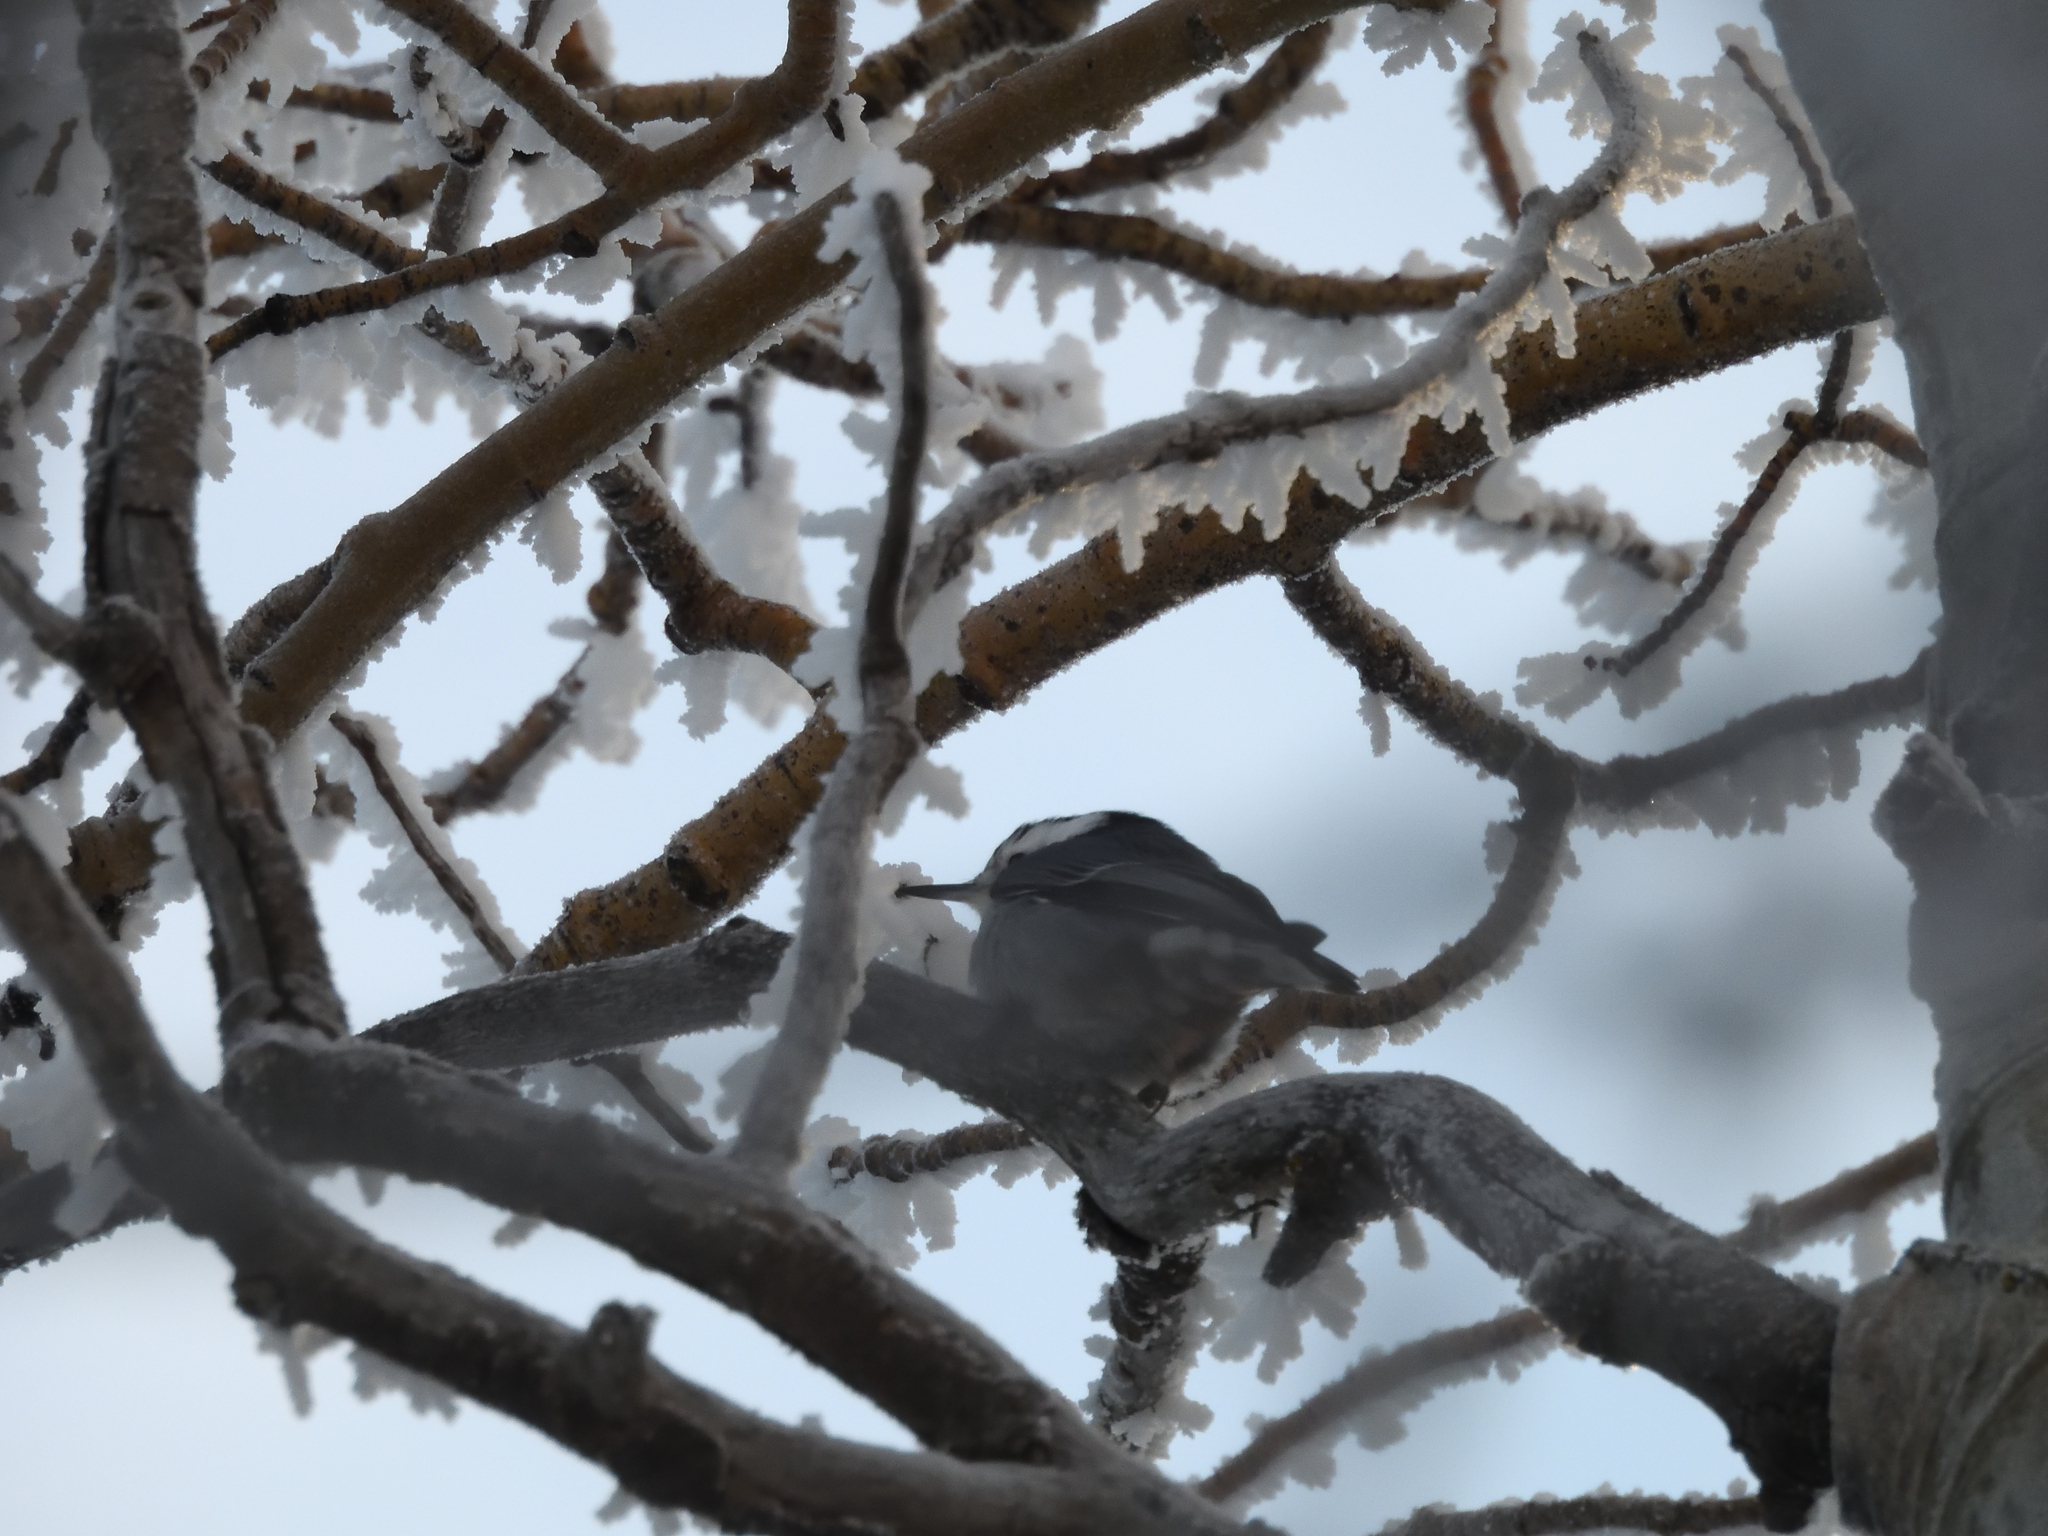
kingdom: Animalia
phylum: Chordata
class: Aves
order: Passeriformes
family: Sittidae
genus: Sitta
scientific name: Sitta carolinensis
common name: White-breasted nuthatch
